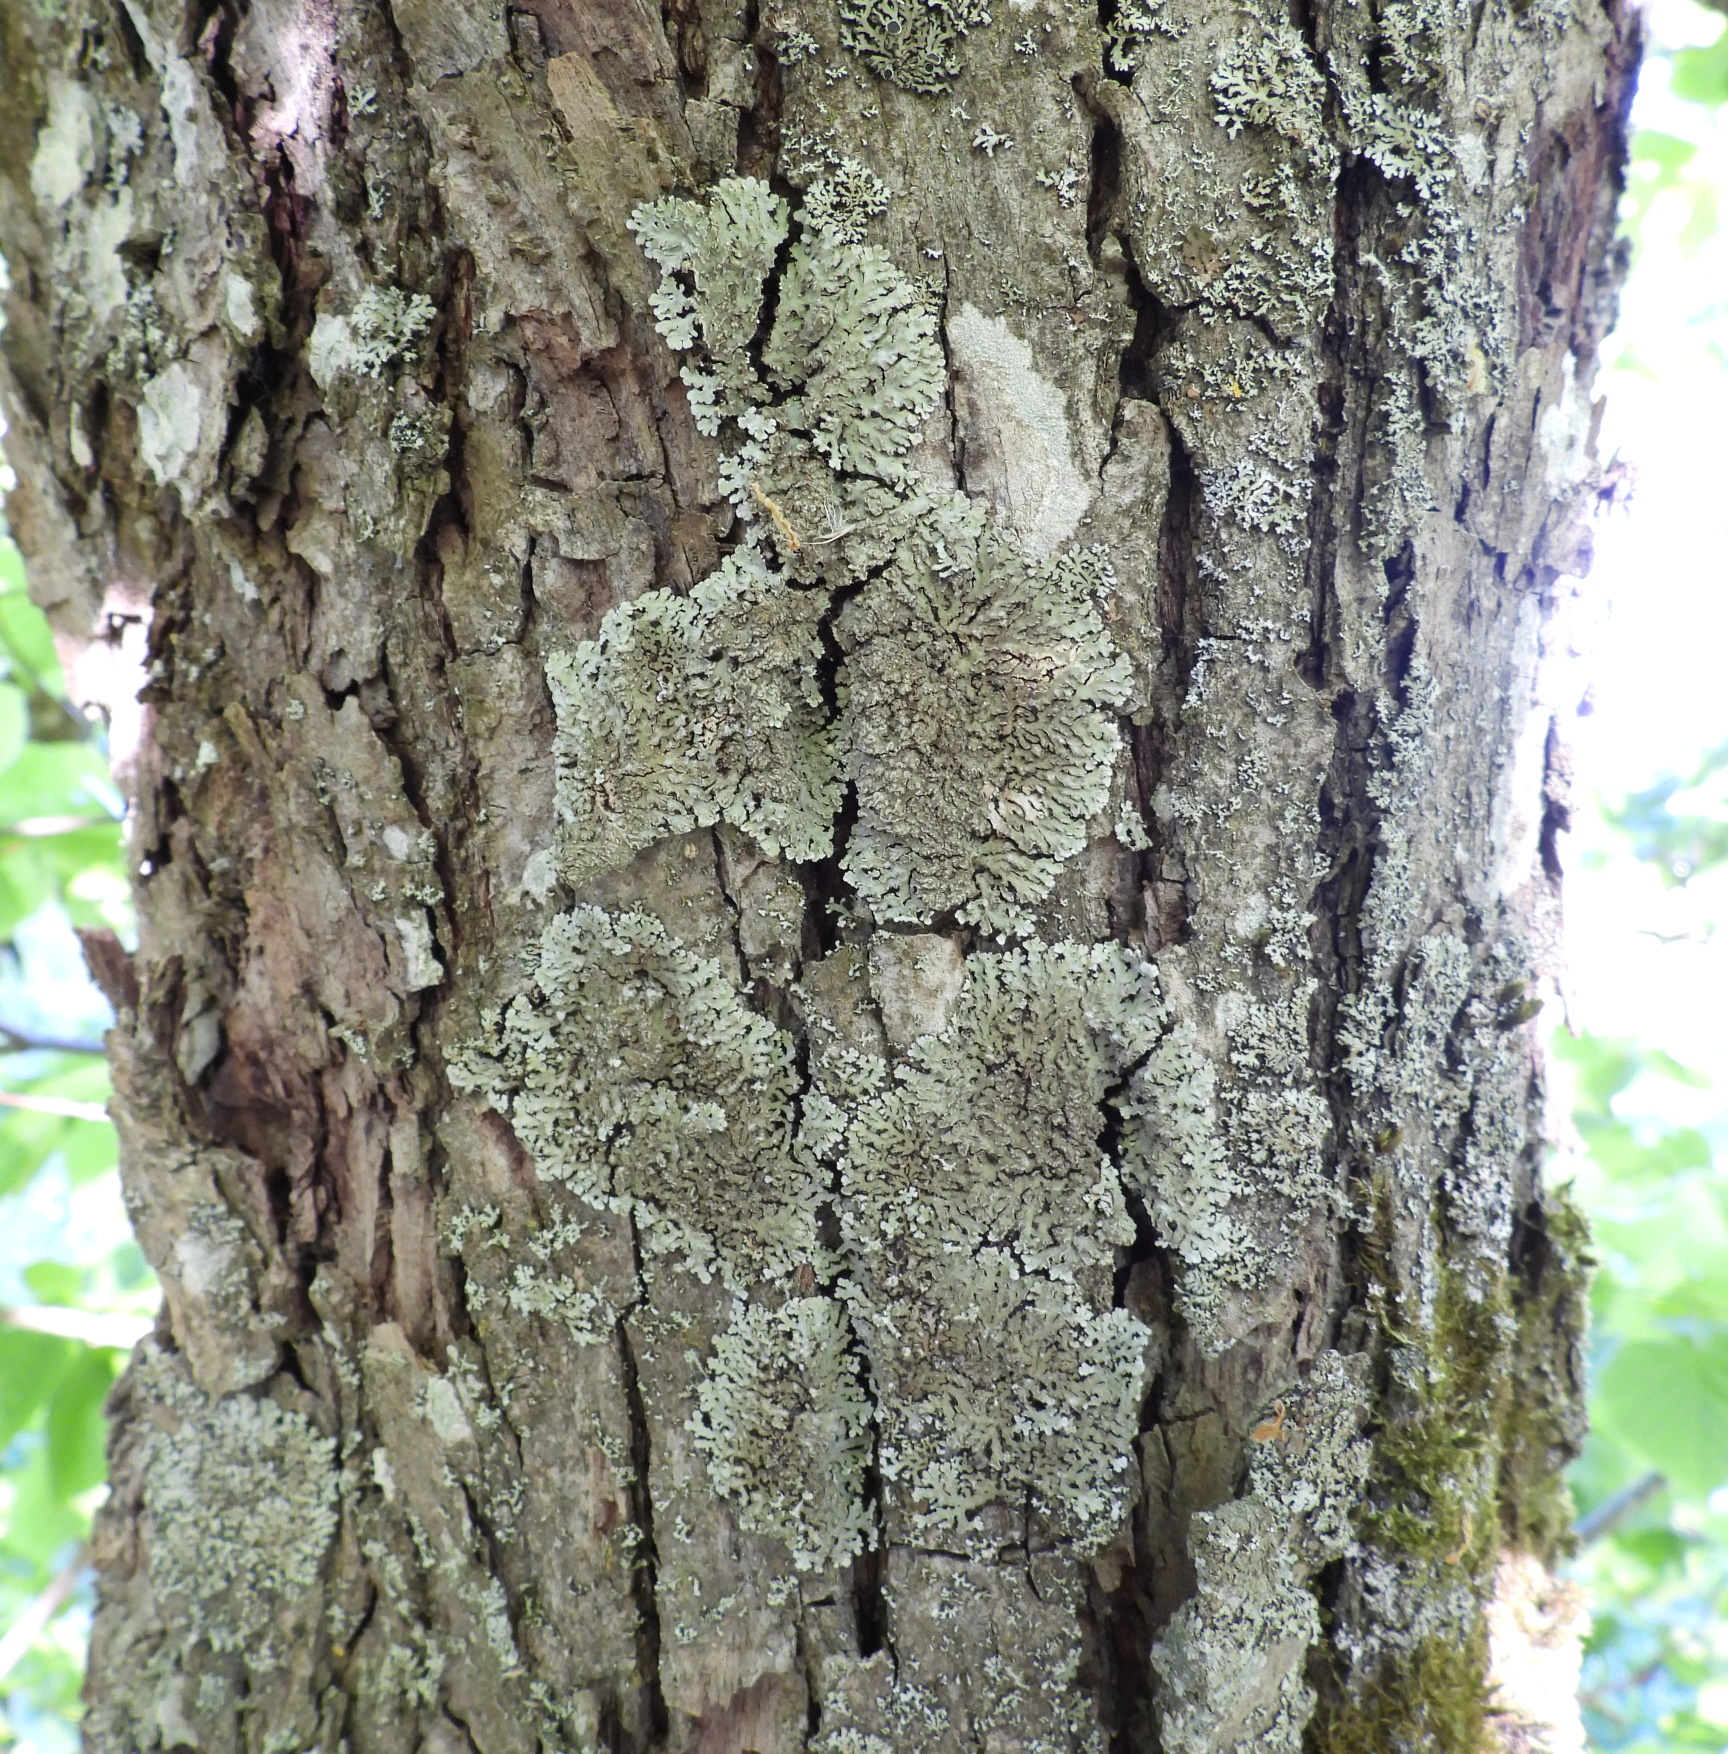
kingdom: Fungi
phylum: Ascomycota
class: Lecanoromycetes
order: Caliciales
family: Physciaceae
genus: Physconia
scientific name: Physconia enteroxantha
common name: Yellow-edged frost lichen
